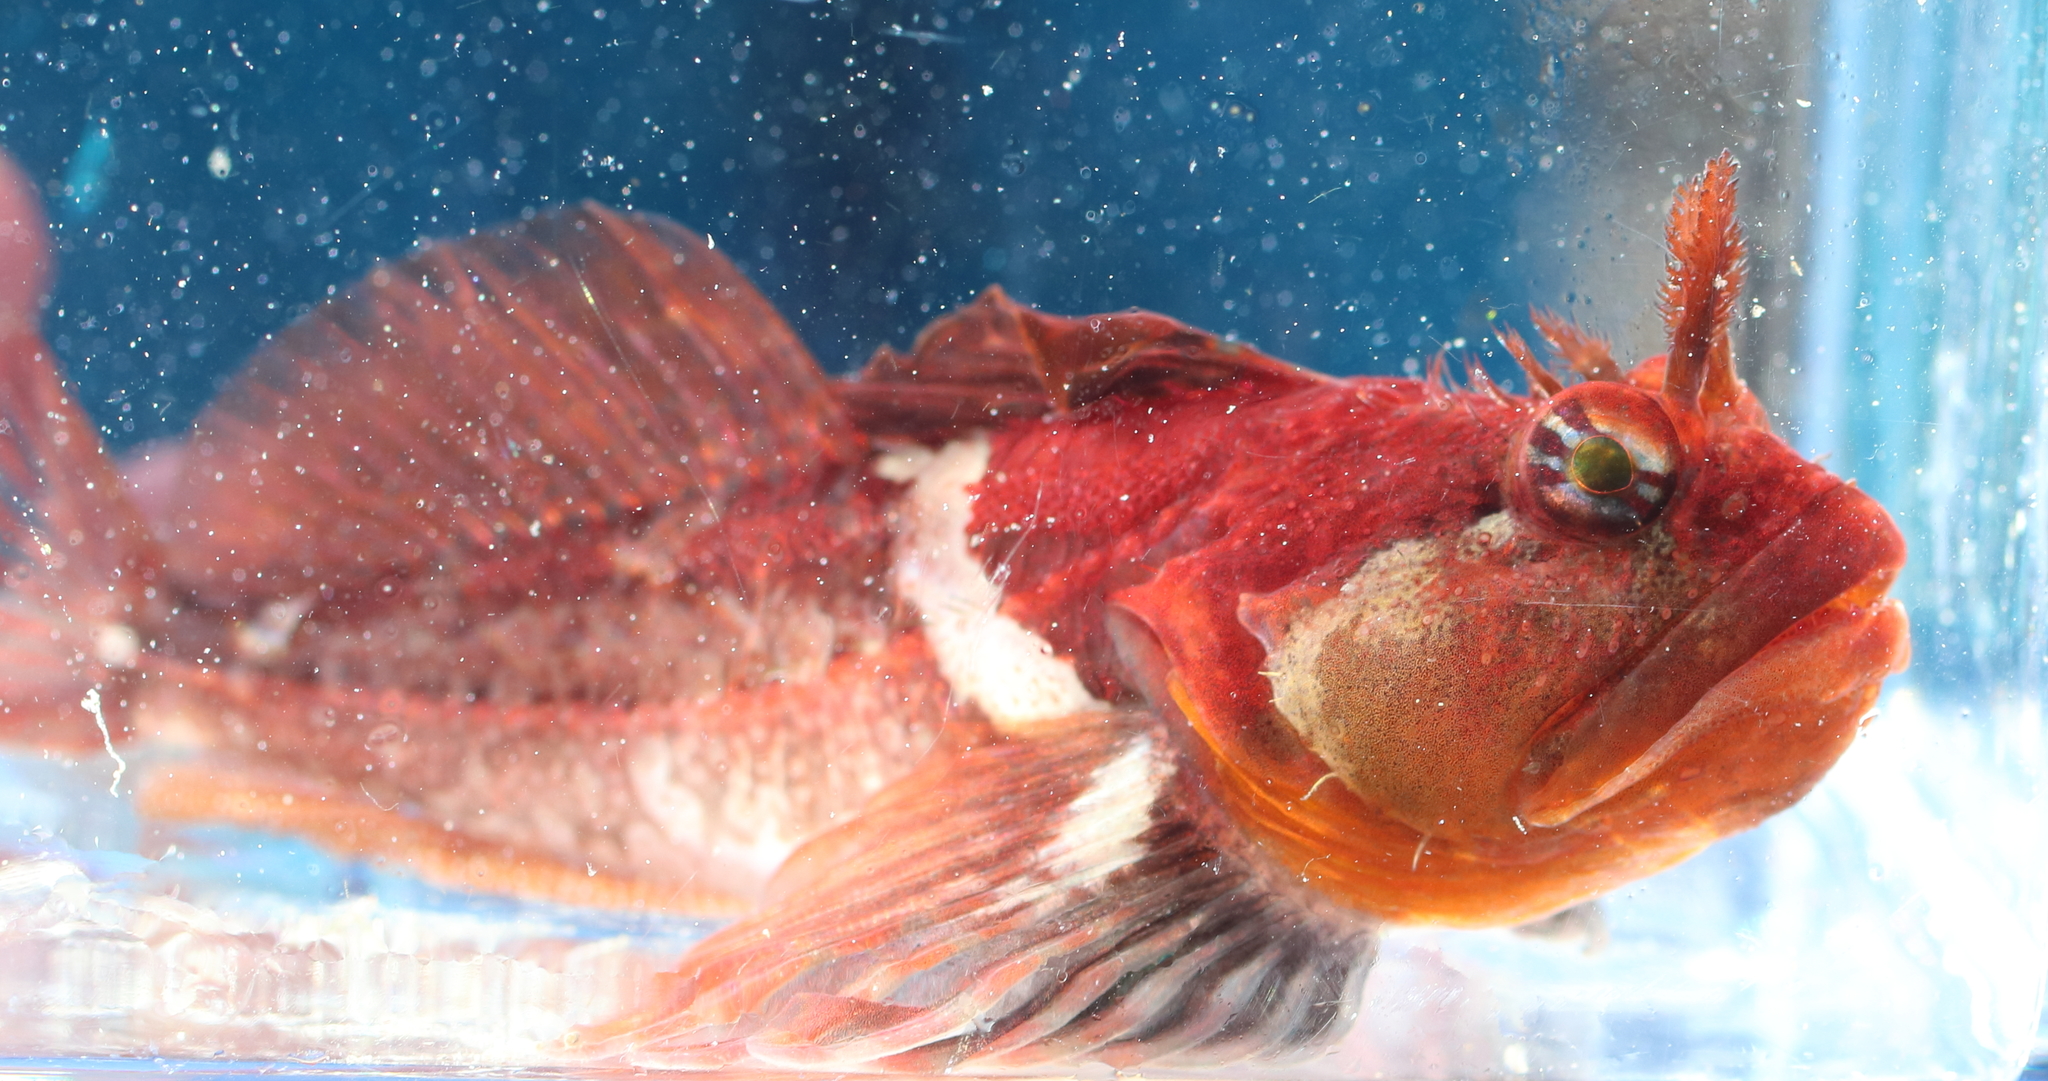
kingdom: Animalia
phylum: Chordata
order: Scorpaeniformes
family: Cottidae
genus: Artedius
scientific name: Artedius harringtoni
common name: Scalyhead sculpin
